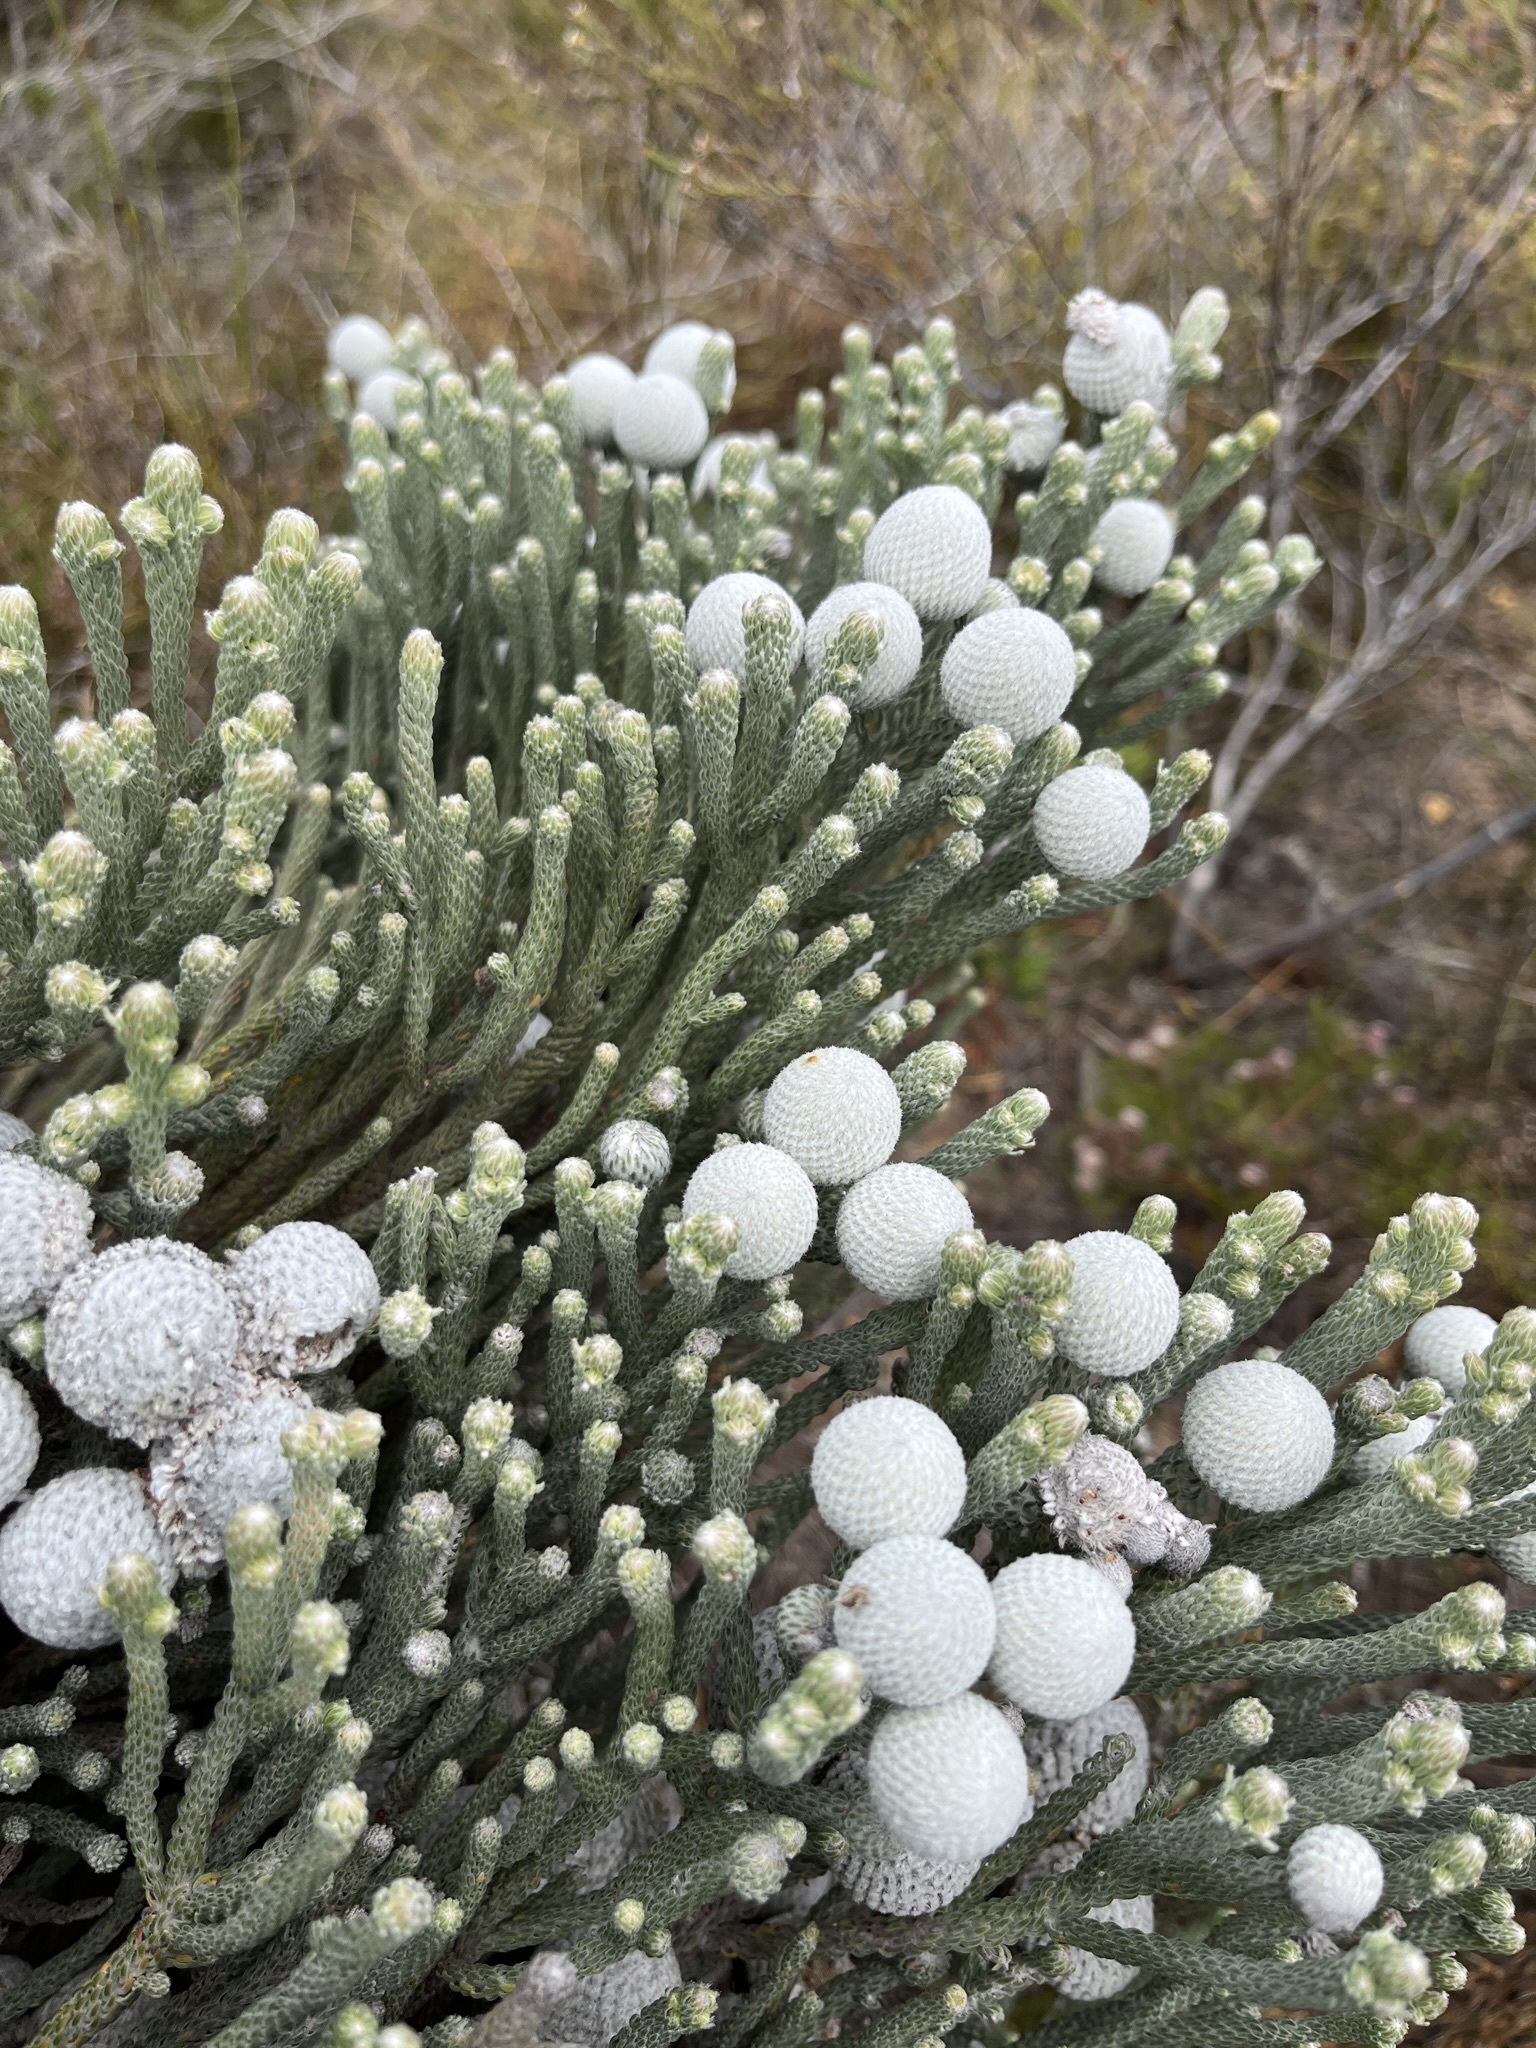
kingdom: Plantae
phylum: Tracheophyta
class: Magnoliopsida
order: Bruniales
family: Bruniaceae
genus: Brunia
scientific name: Brunia laevis
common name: Silver brunia
